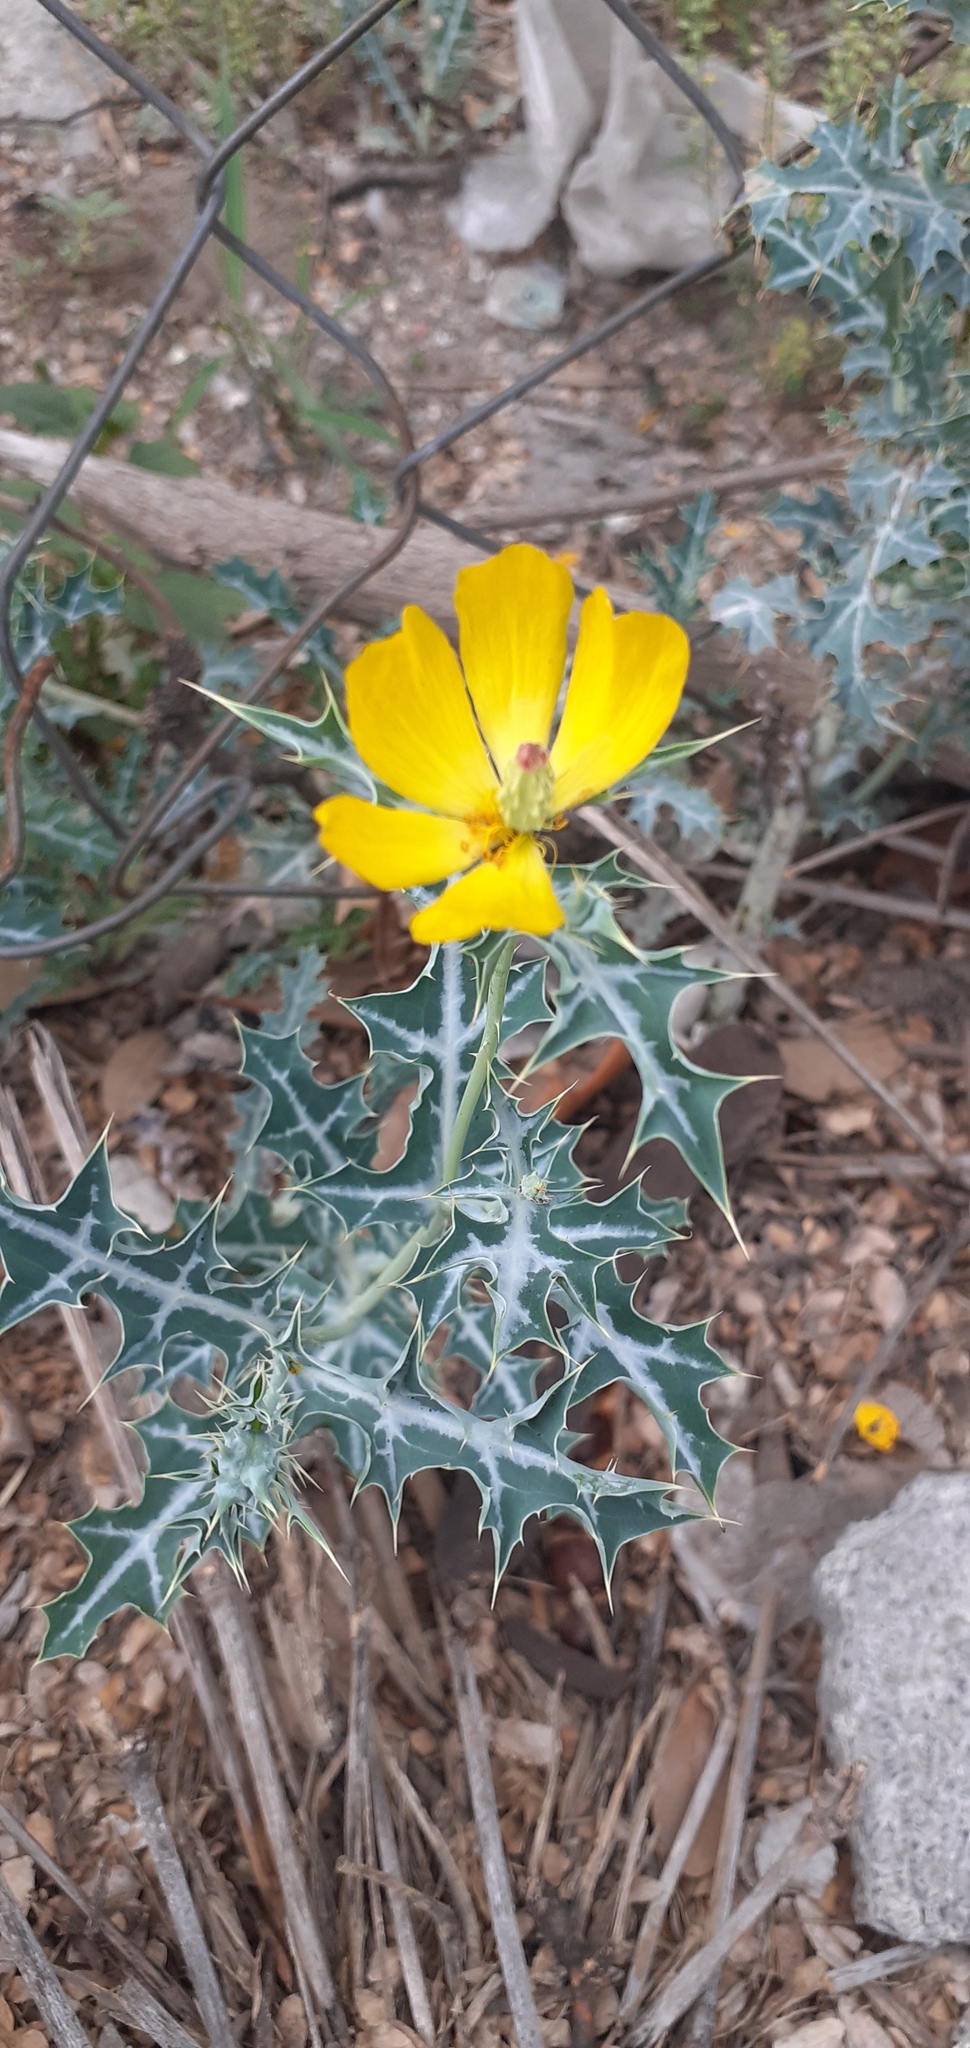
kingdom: Plantae
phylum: Tracheophyta
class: Magnoliopsida
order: Ranunculales
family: Papaveraceae
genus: Argemone
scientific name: Argemone mexicana
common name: Mexican poppy
